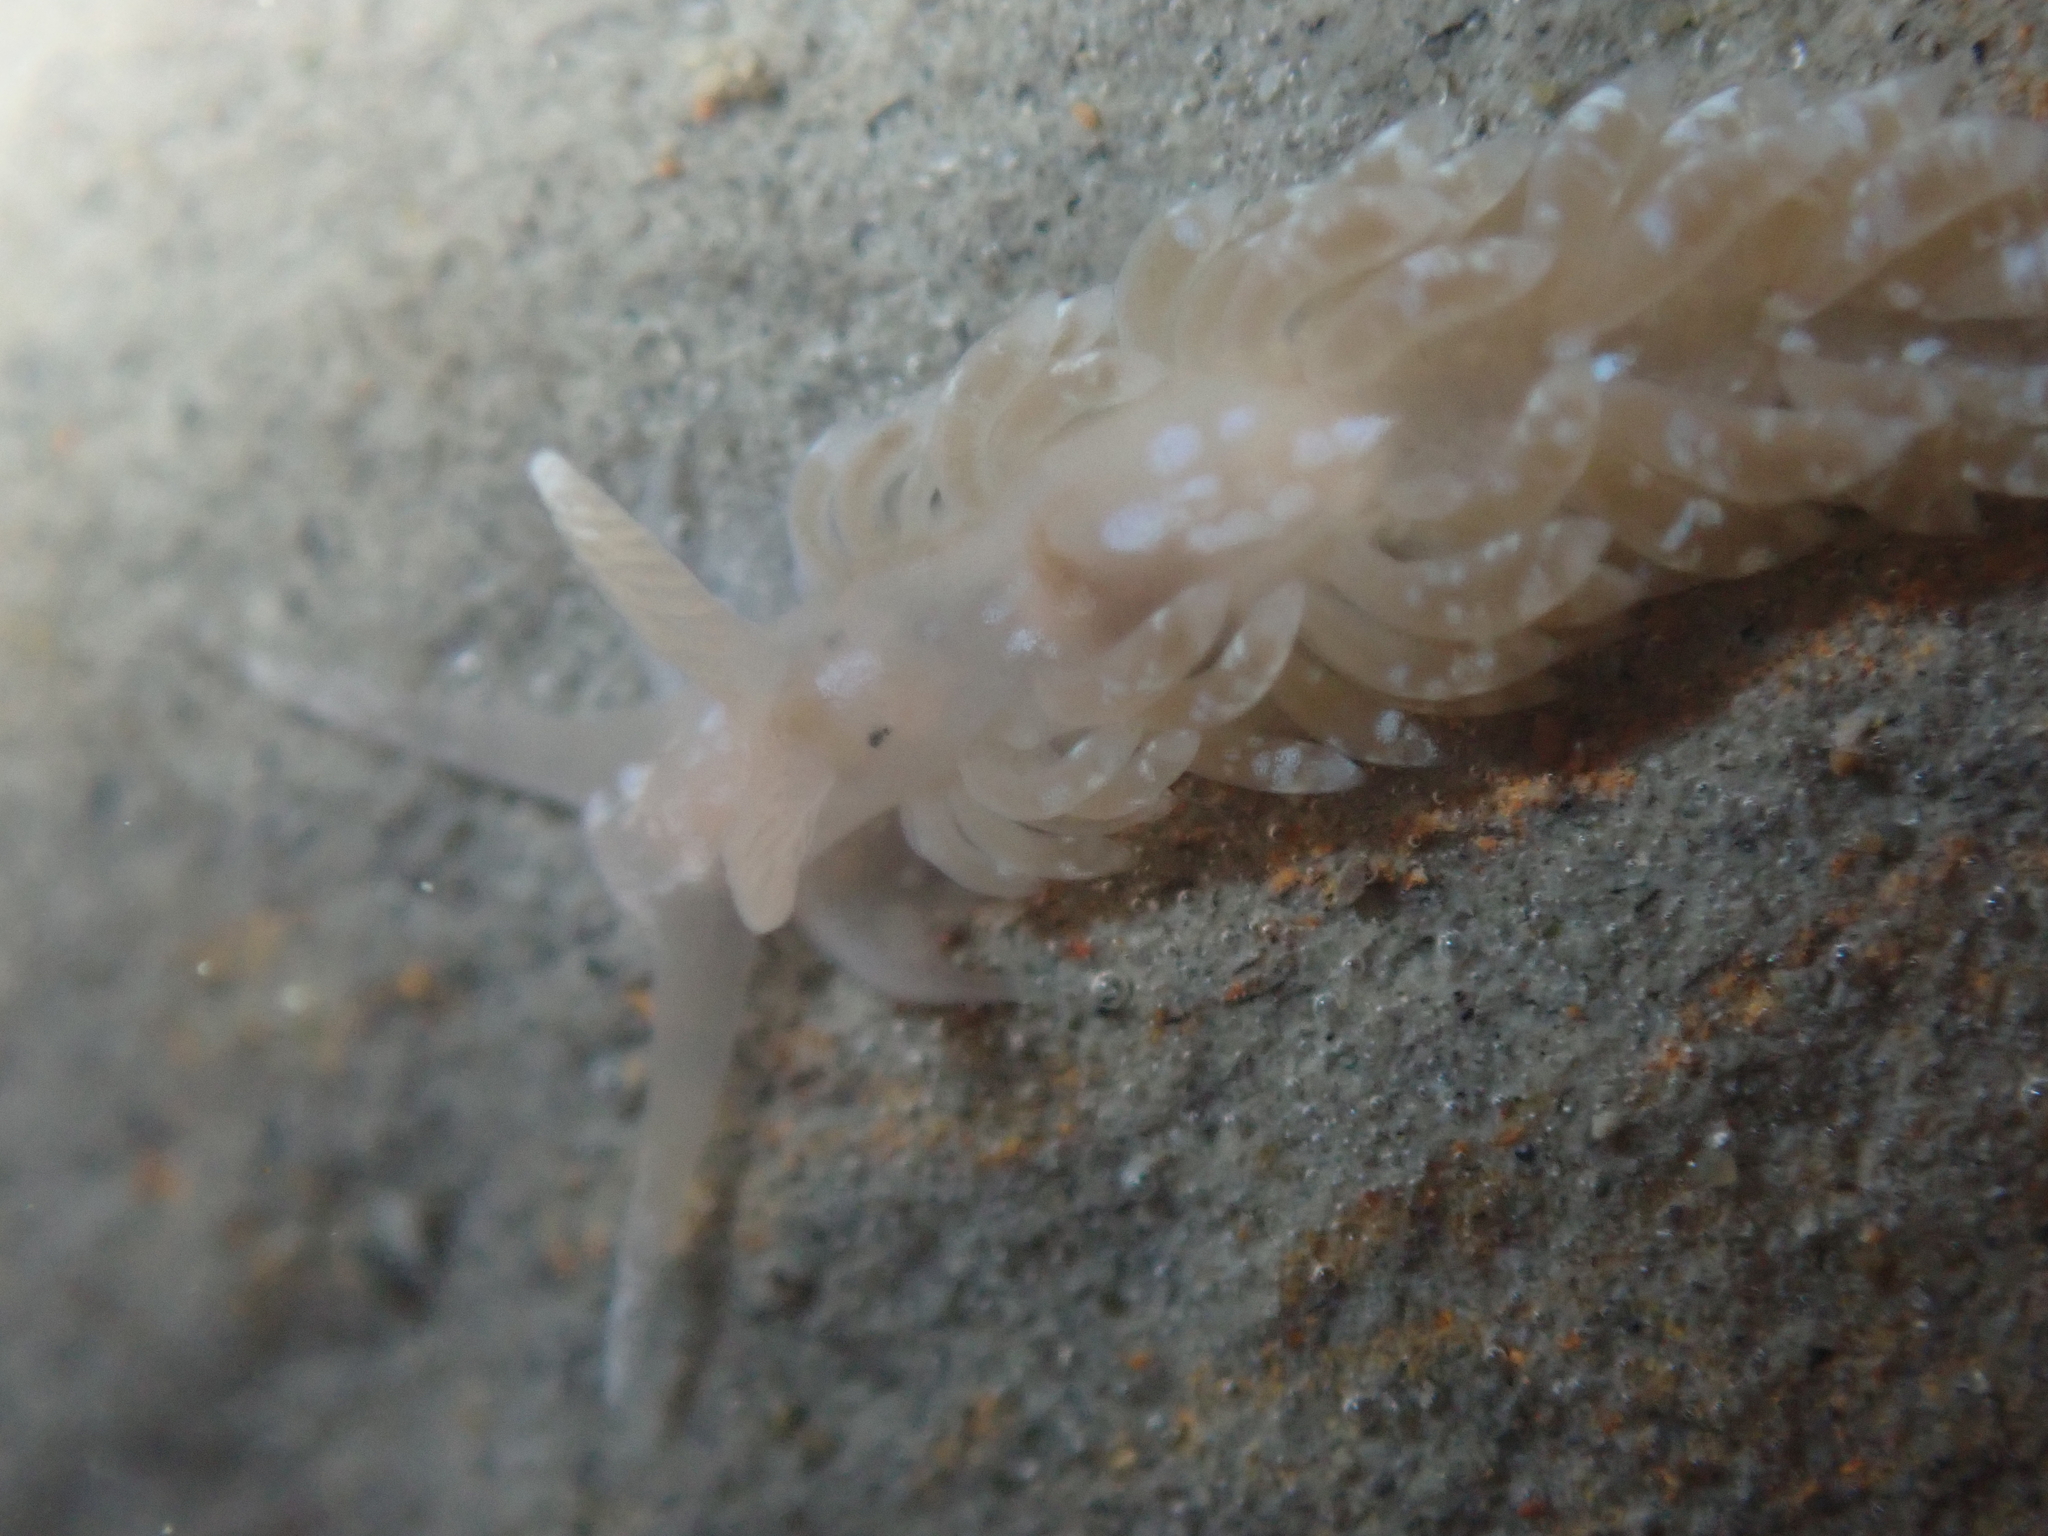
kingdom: Animalia
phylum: Mollusca
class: Gastropoda
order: Nudibranchia
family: Aeolidiidae
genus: Anteaeolidiella
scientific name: Anteaeolidiella
